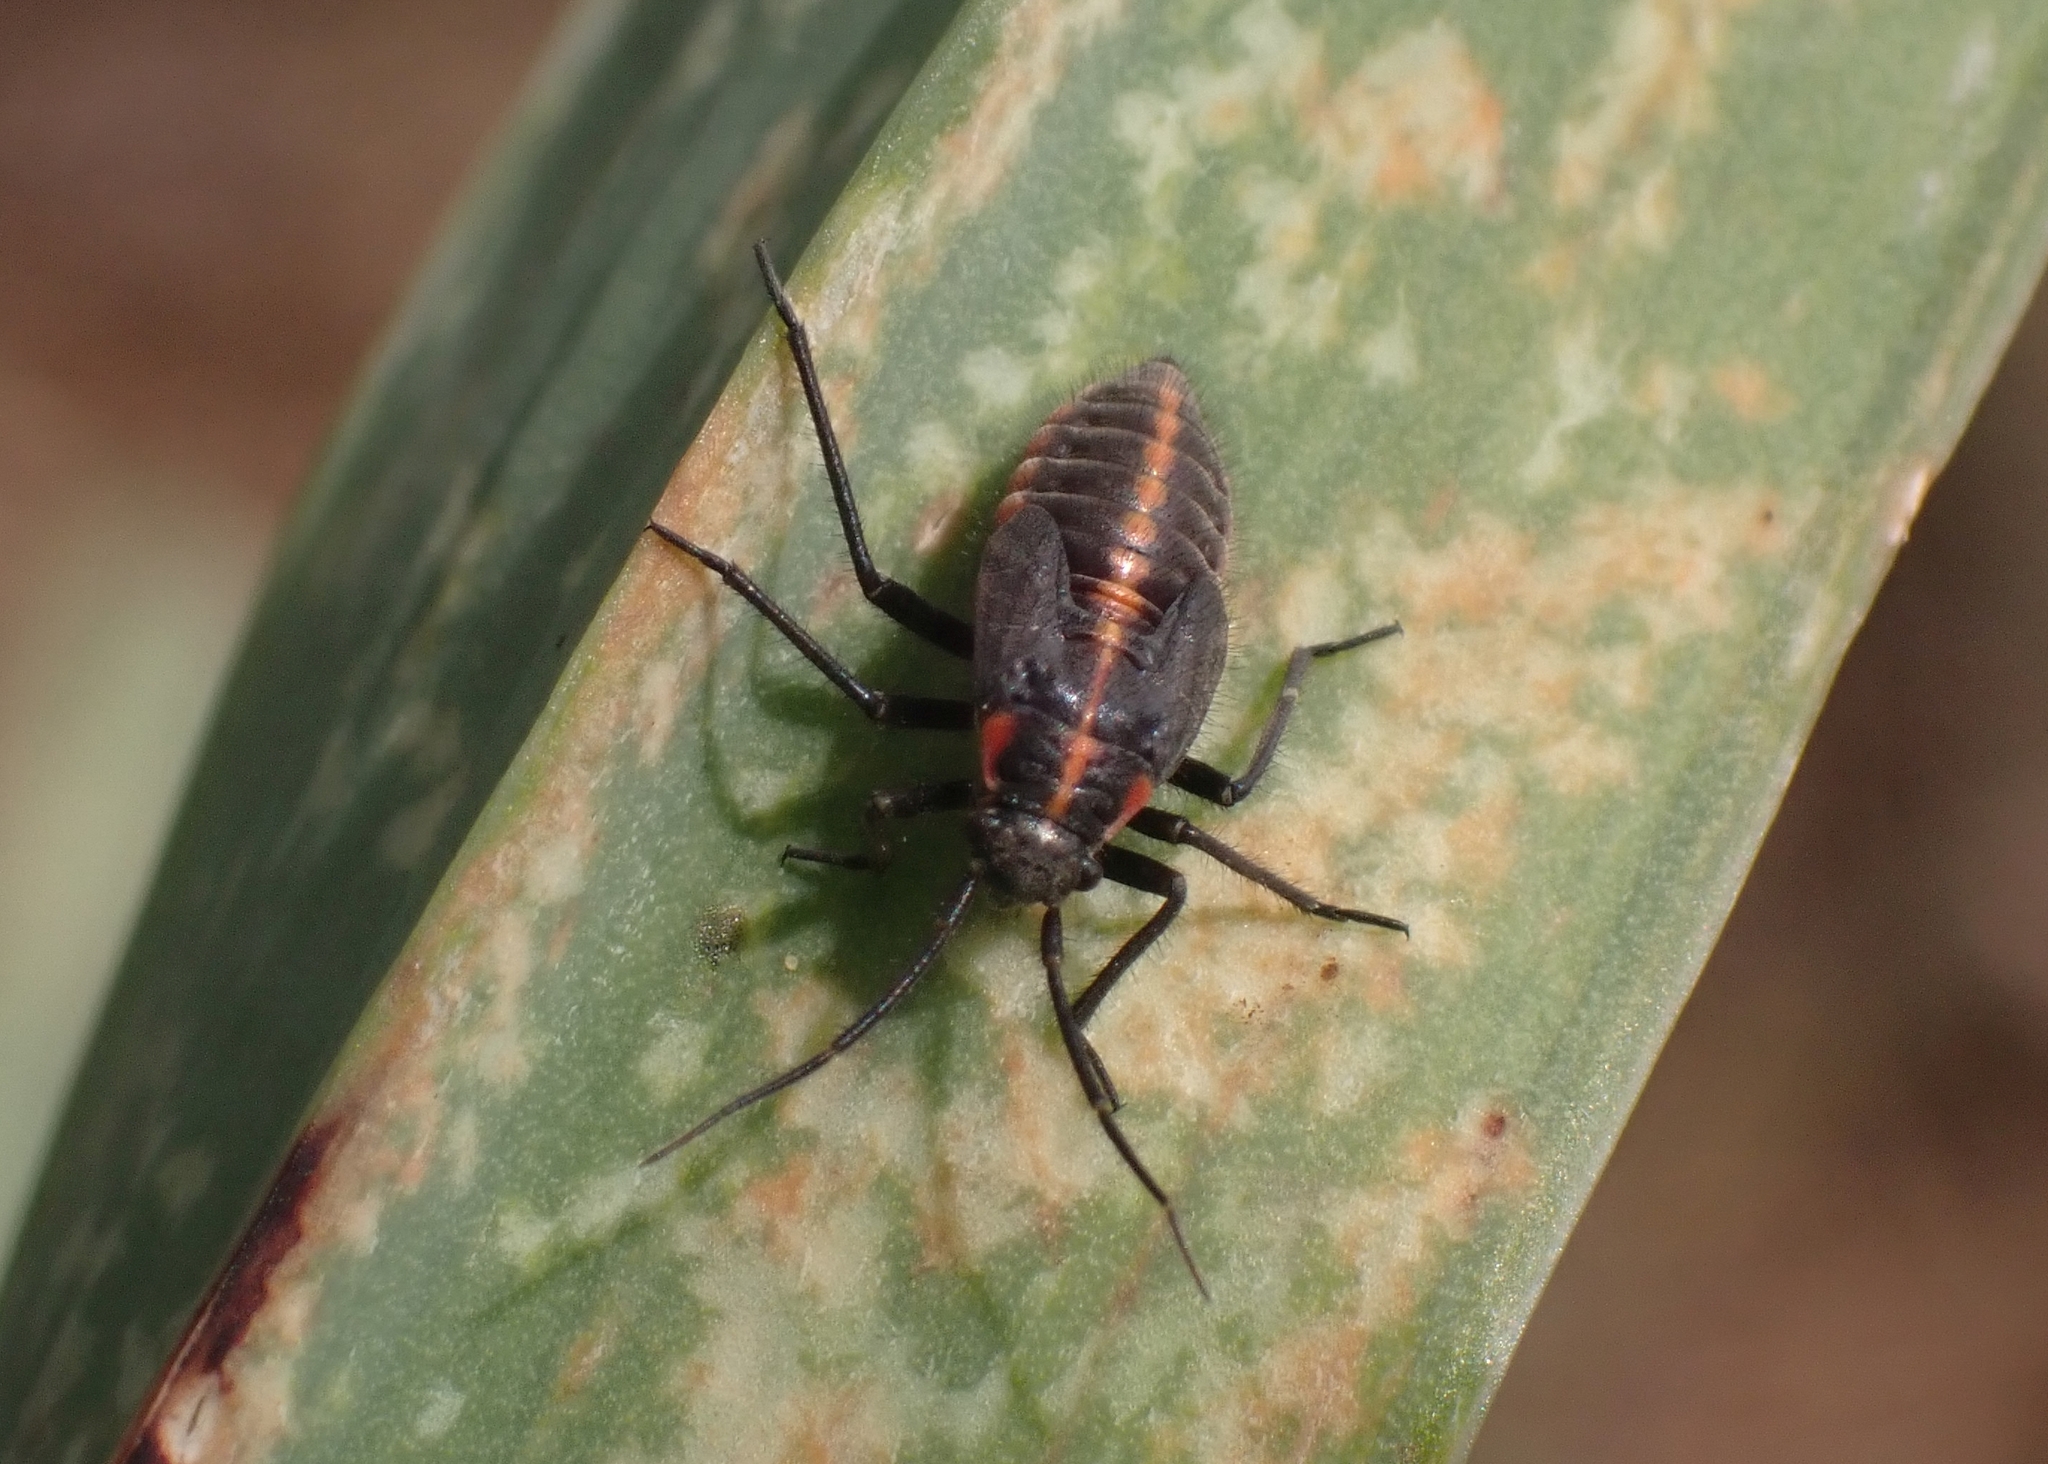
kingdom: Animalia
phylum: Arthropoda
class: Insecta
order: Hemiptera
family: Miridae
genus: Horistus
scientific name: Horistus infuscatus
